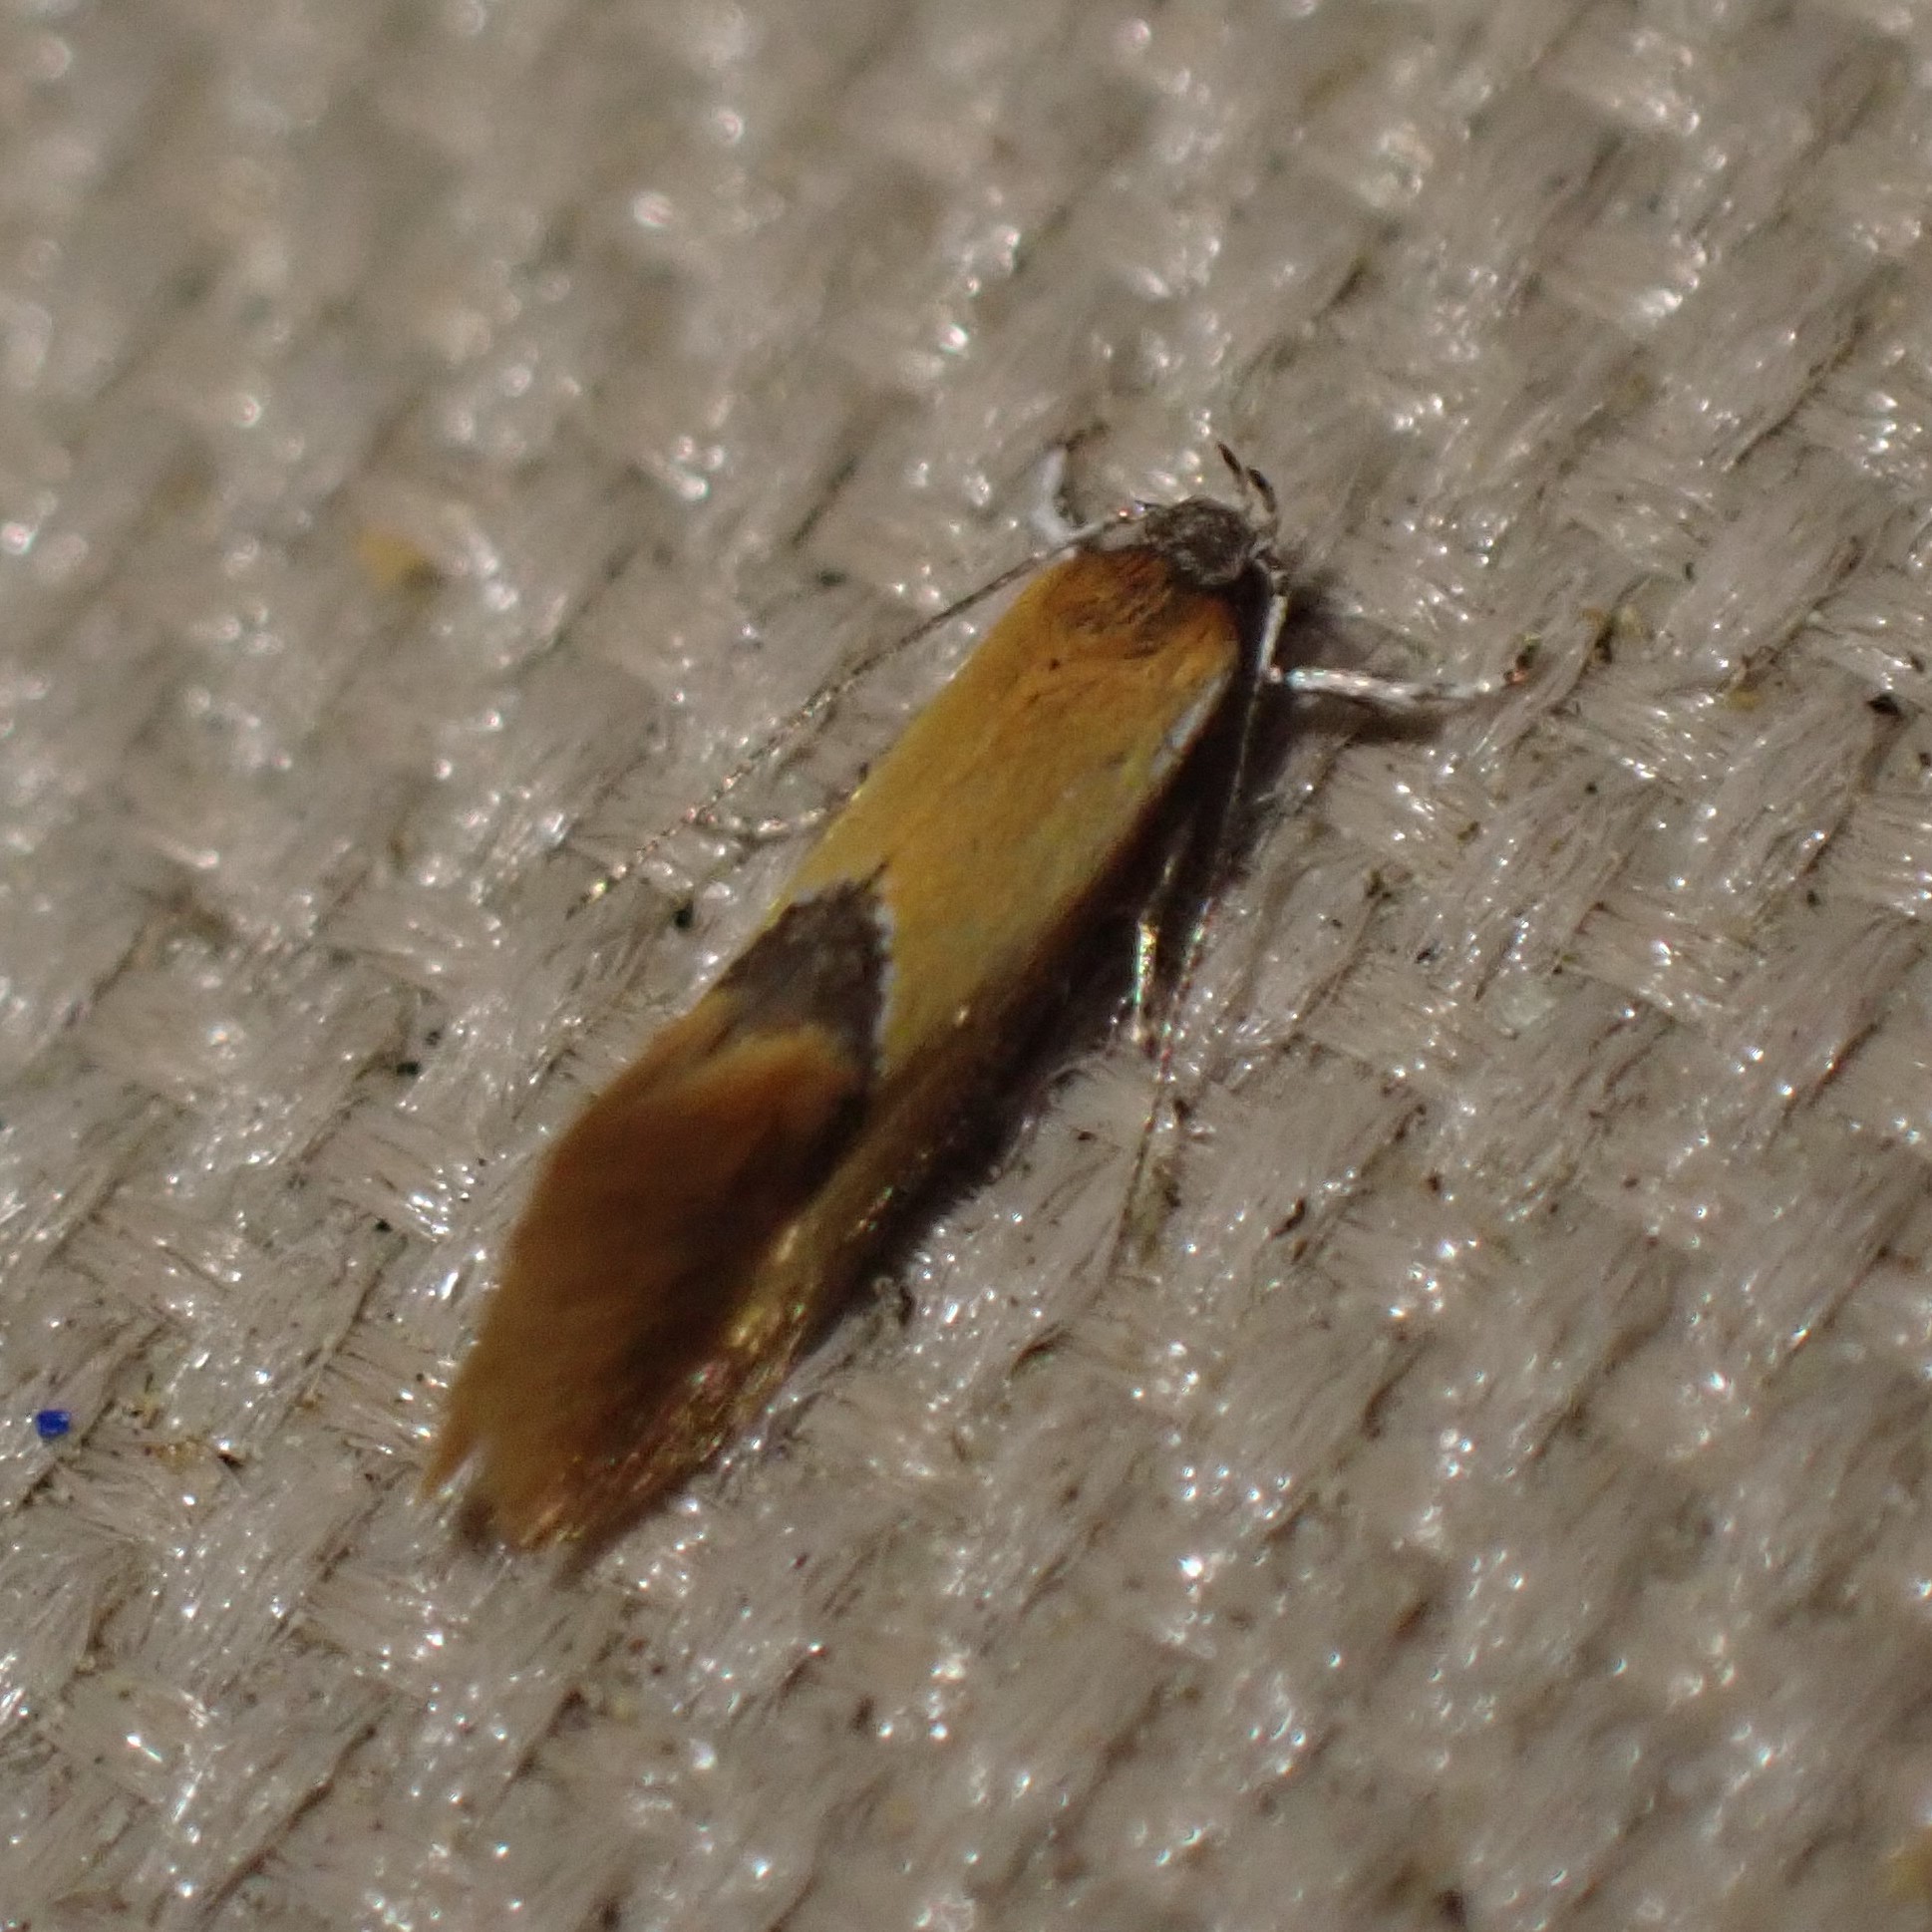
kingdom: Animalia
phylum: Arthropoda
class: Insecta
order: Lepidoptera
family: Oecophoridae
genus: Batia
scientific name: Batia lunaris
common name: Moth
